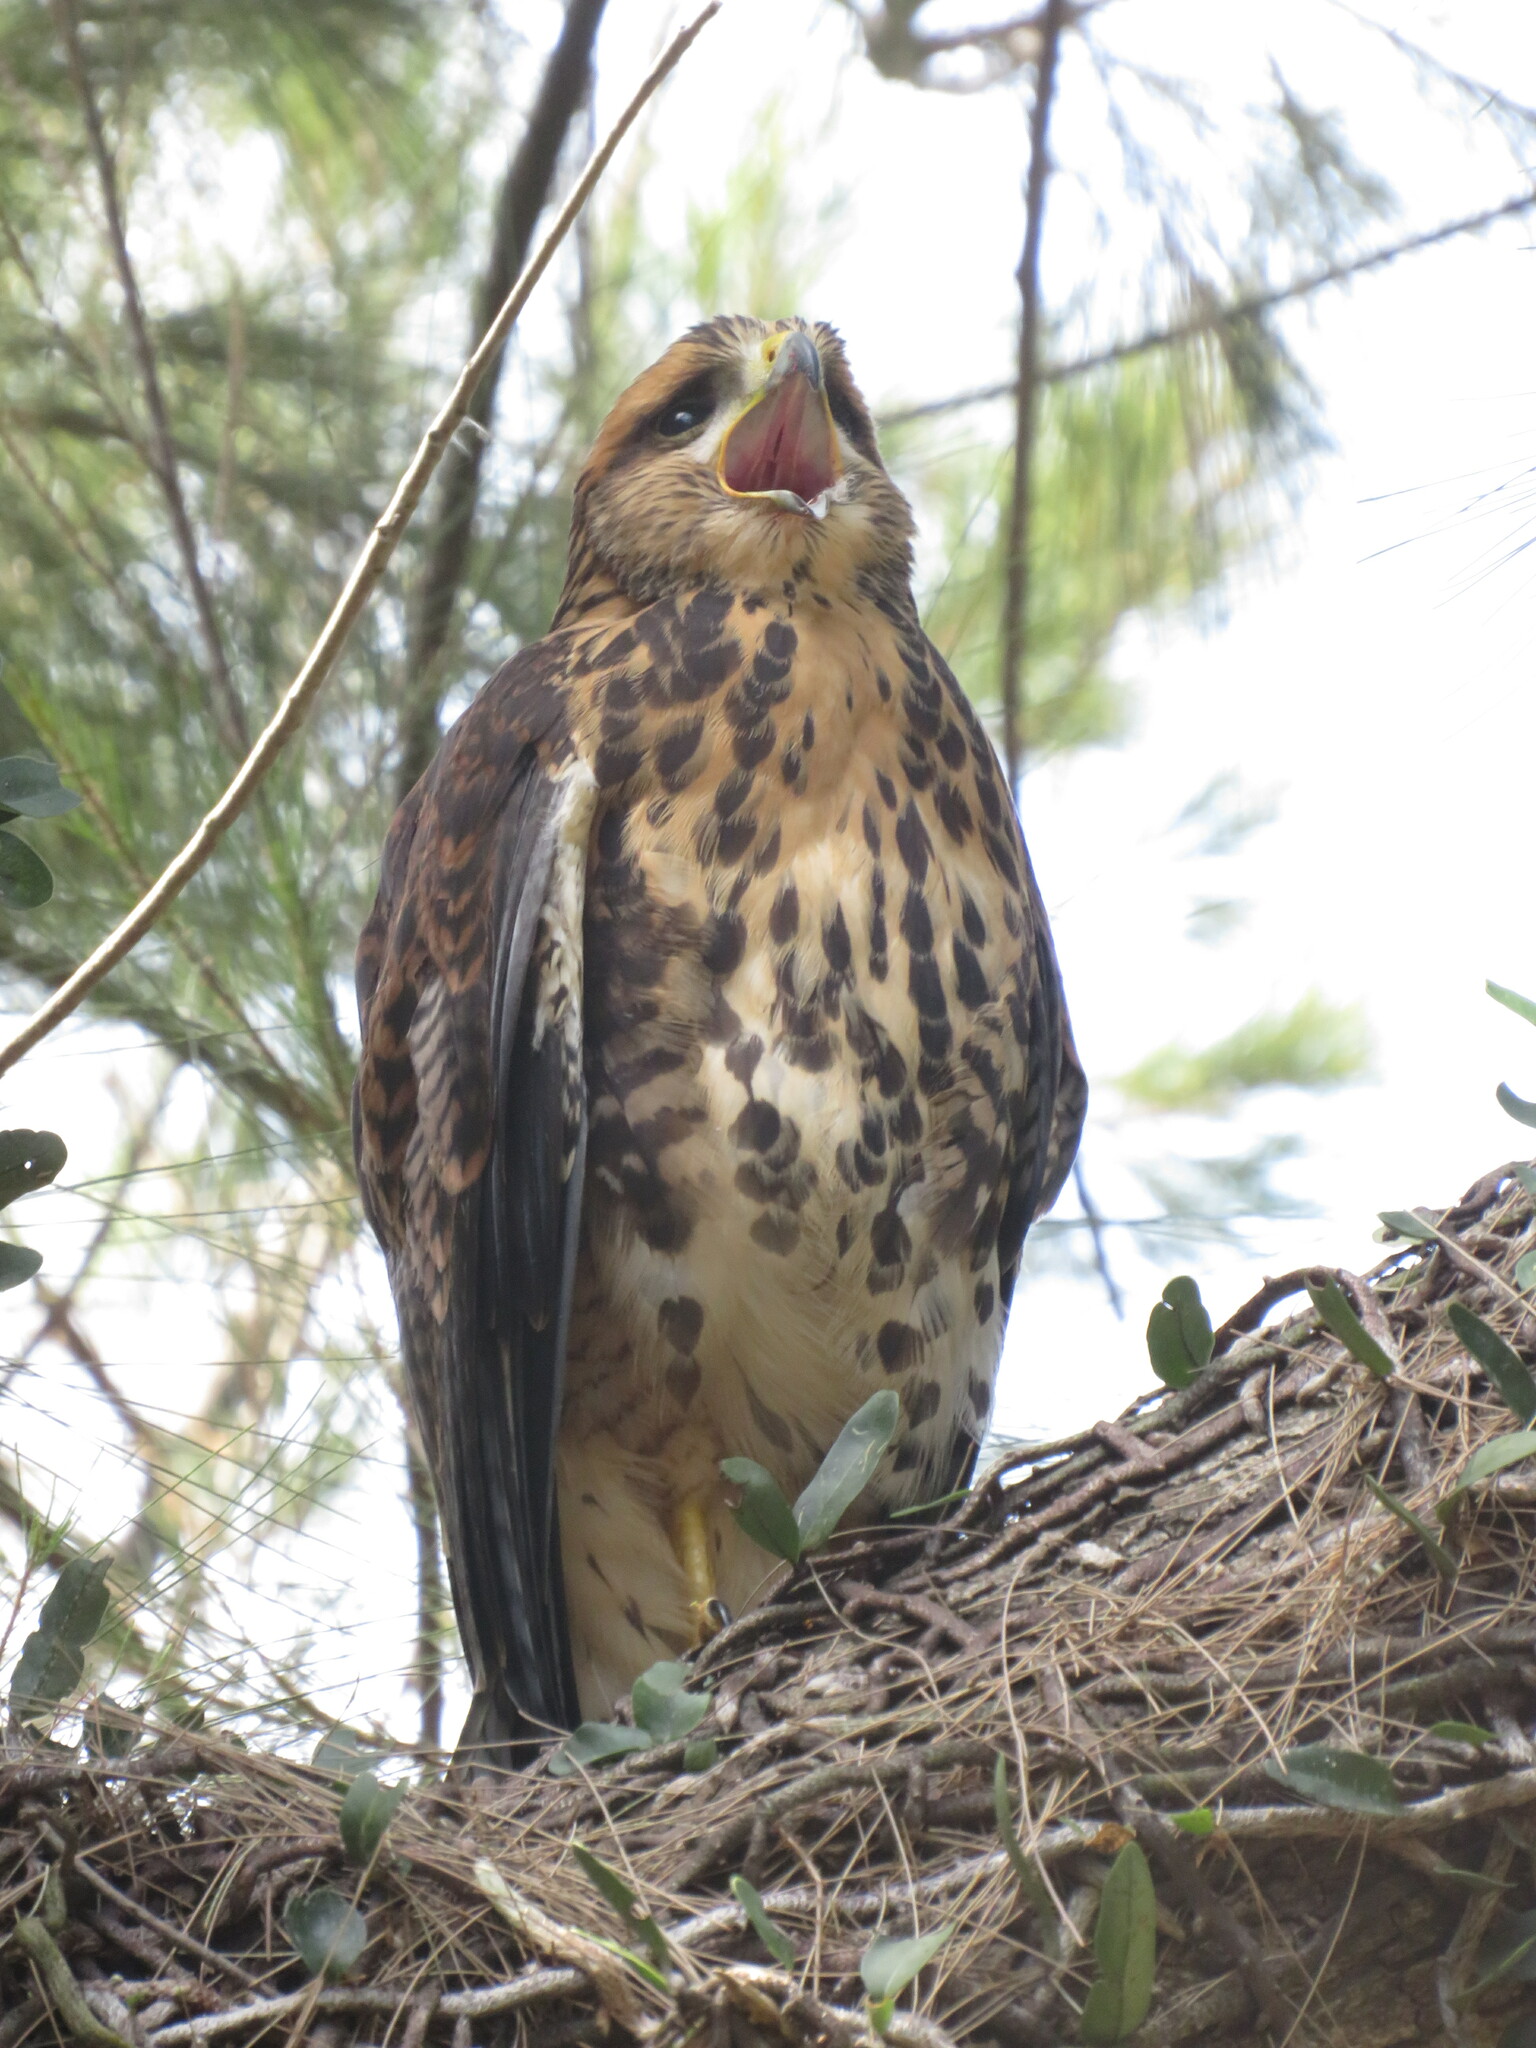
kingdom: Animalia
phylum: Chordata
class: Aves
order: Accipitriformes
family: Accipitridae
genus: Parabuteo
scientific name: Parabuteo unicinctus
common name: Harris's hawk
